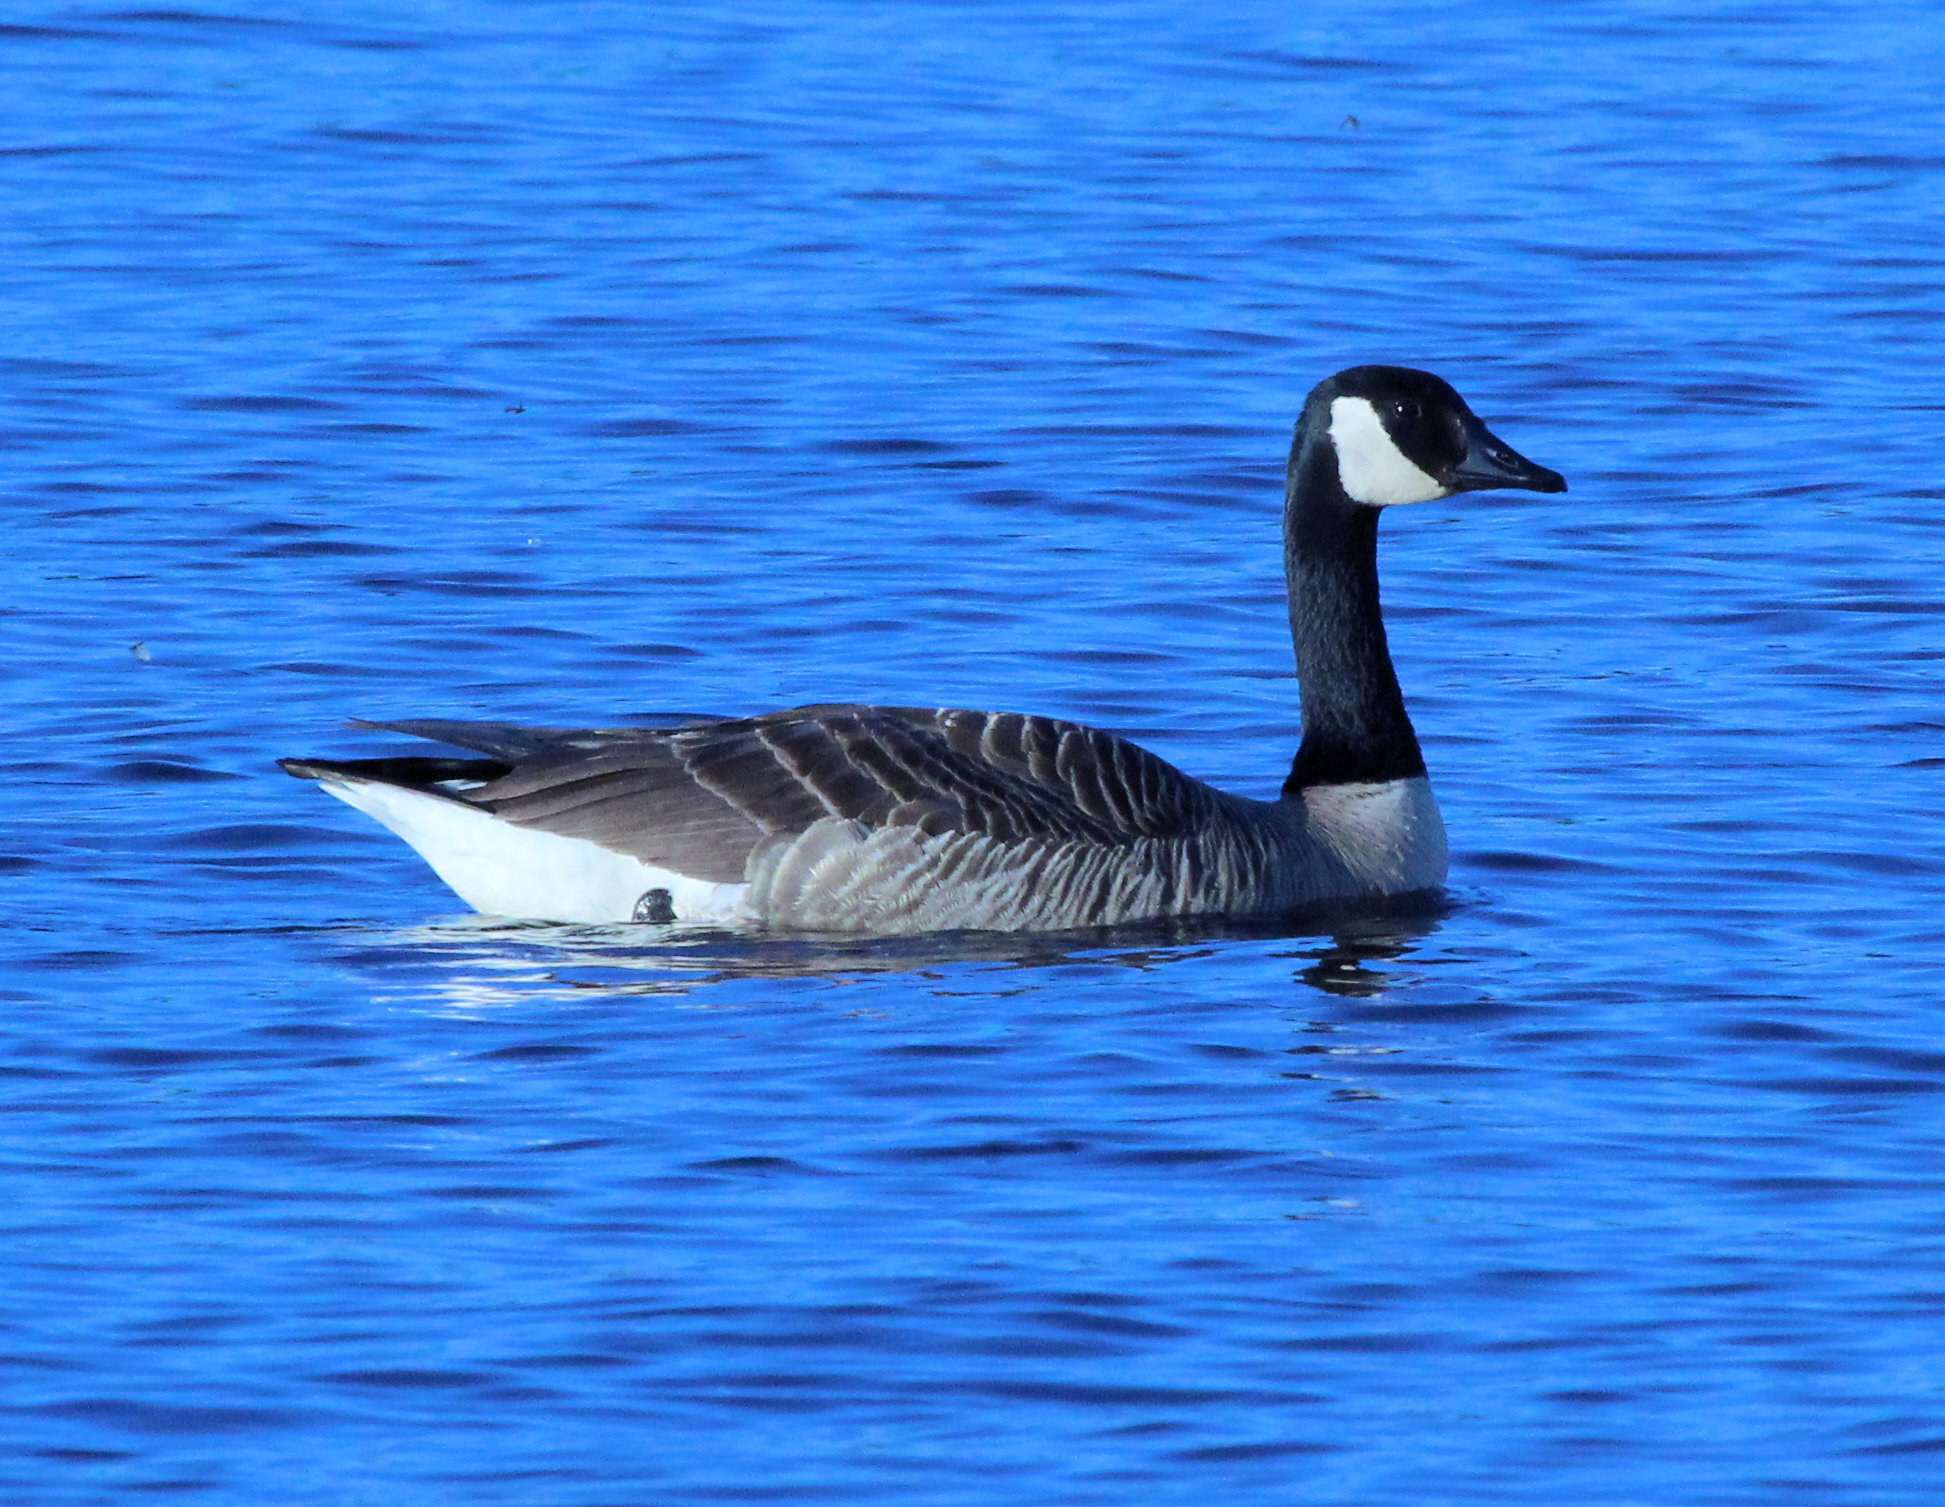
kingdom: Animalia
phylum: Chordata
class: Aves
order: Anseriformes
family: Anatidae
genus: Branta
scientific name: Branta canadensis
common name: Canada goose
